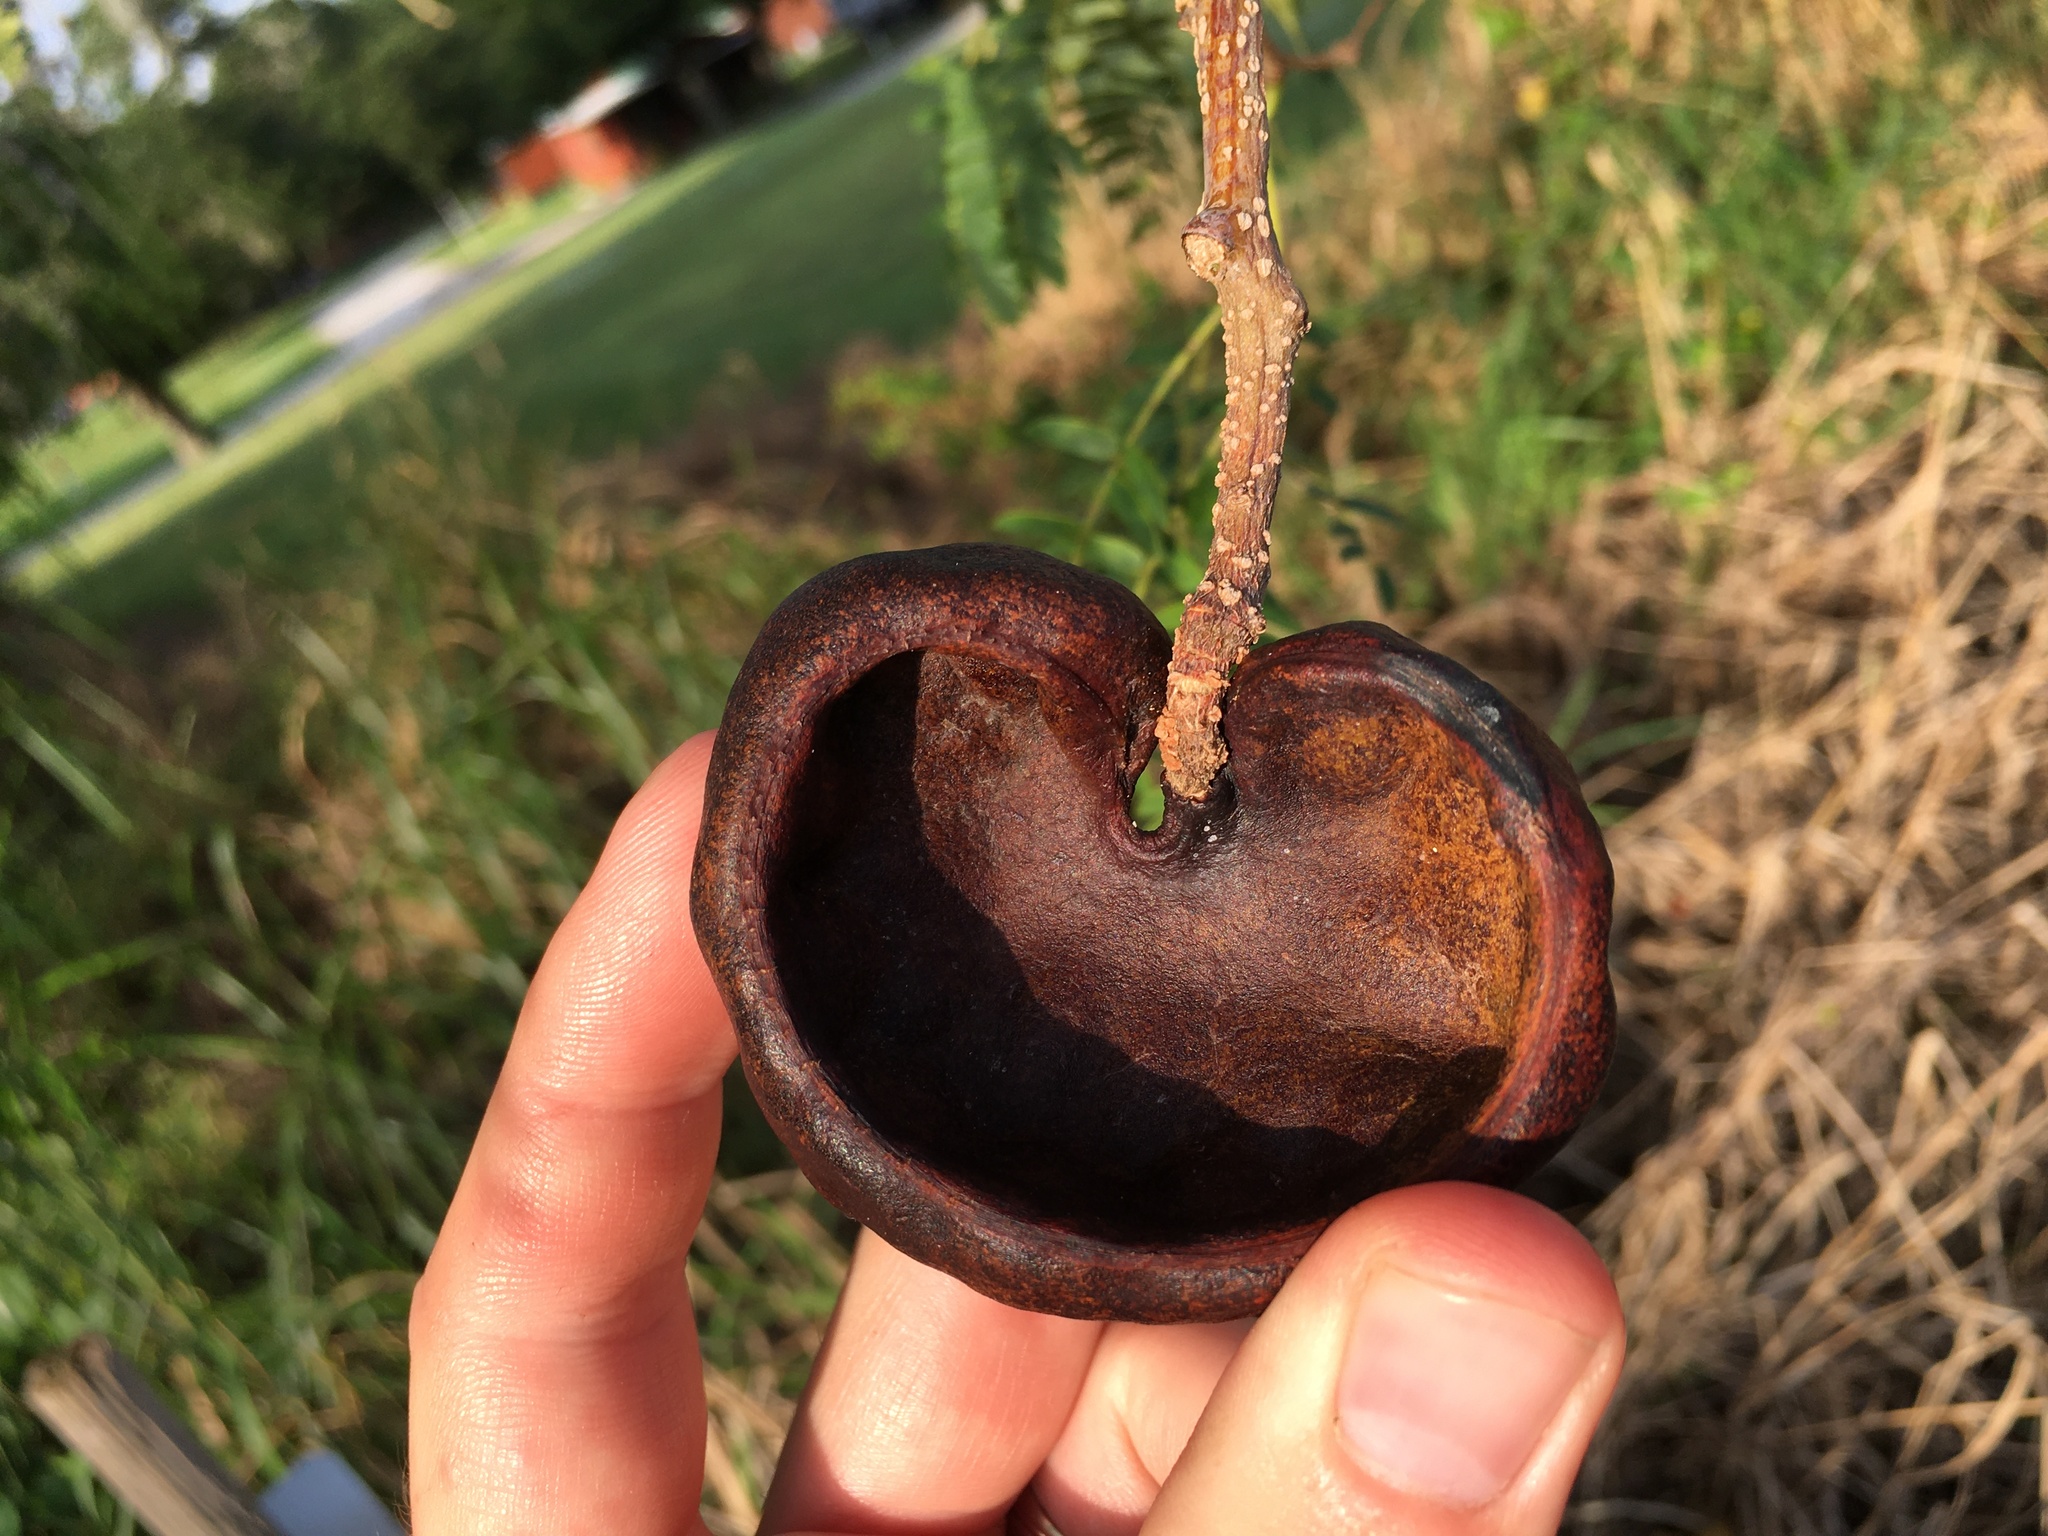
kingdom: Plantae
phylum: Tracheophyta
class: Magnoliopsida
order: Fabales
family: Fabaceae
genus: Enterolobium
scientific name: Enterolobium contortisiliquum
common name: Pacara earpod tree
